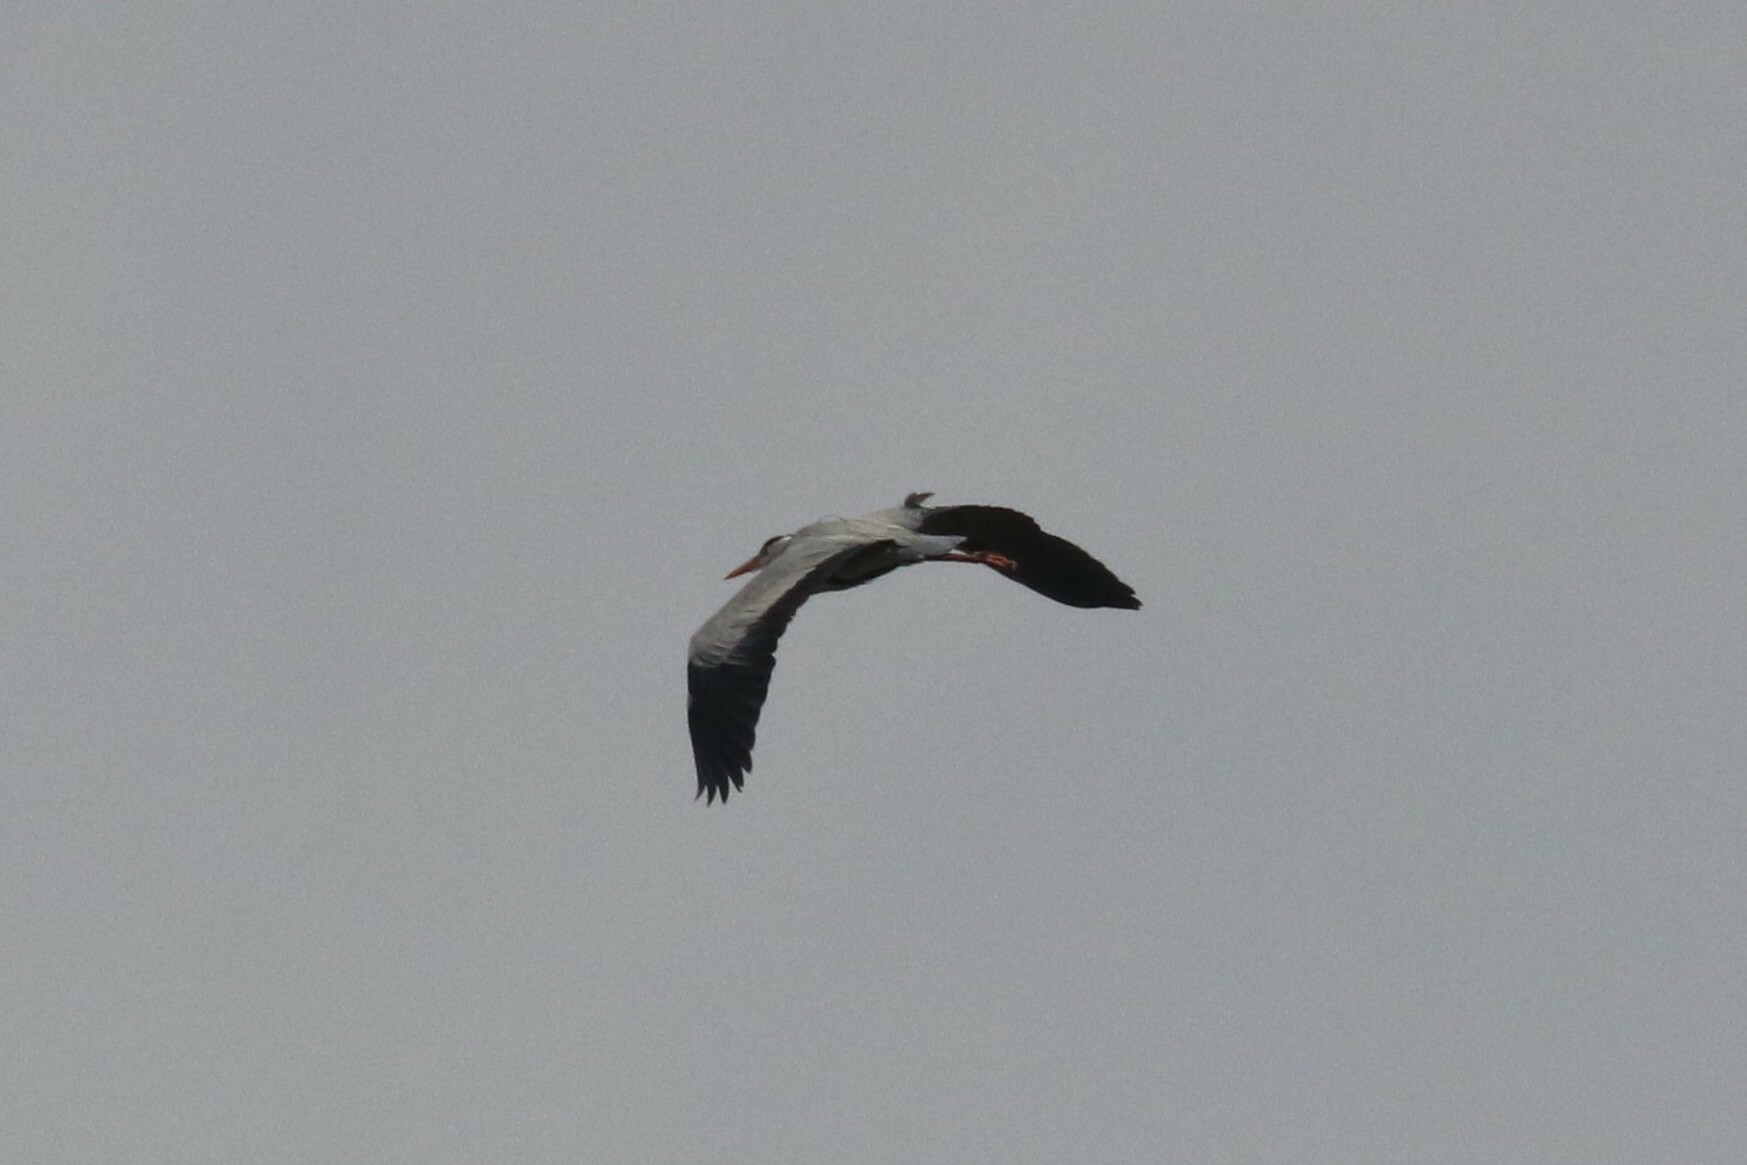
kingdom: Animalia
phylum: Chordata
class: Aves
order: Pelecaniformes
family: Ardeidae
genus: Ardea
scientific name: Ardea cinerea
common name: Grey heron
